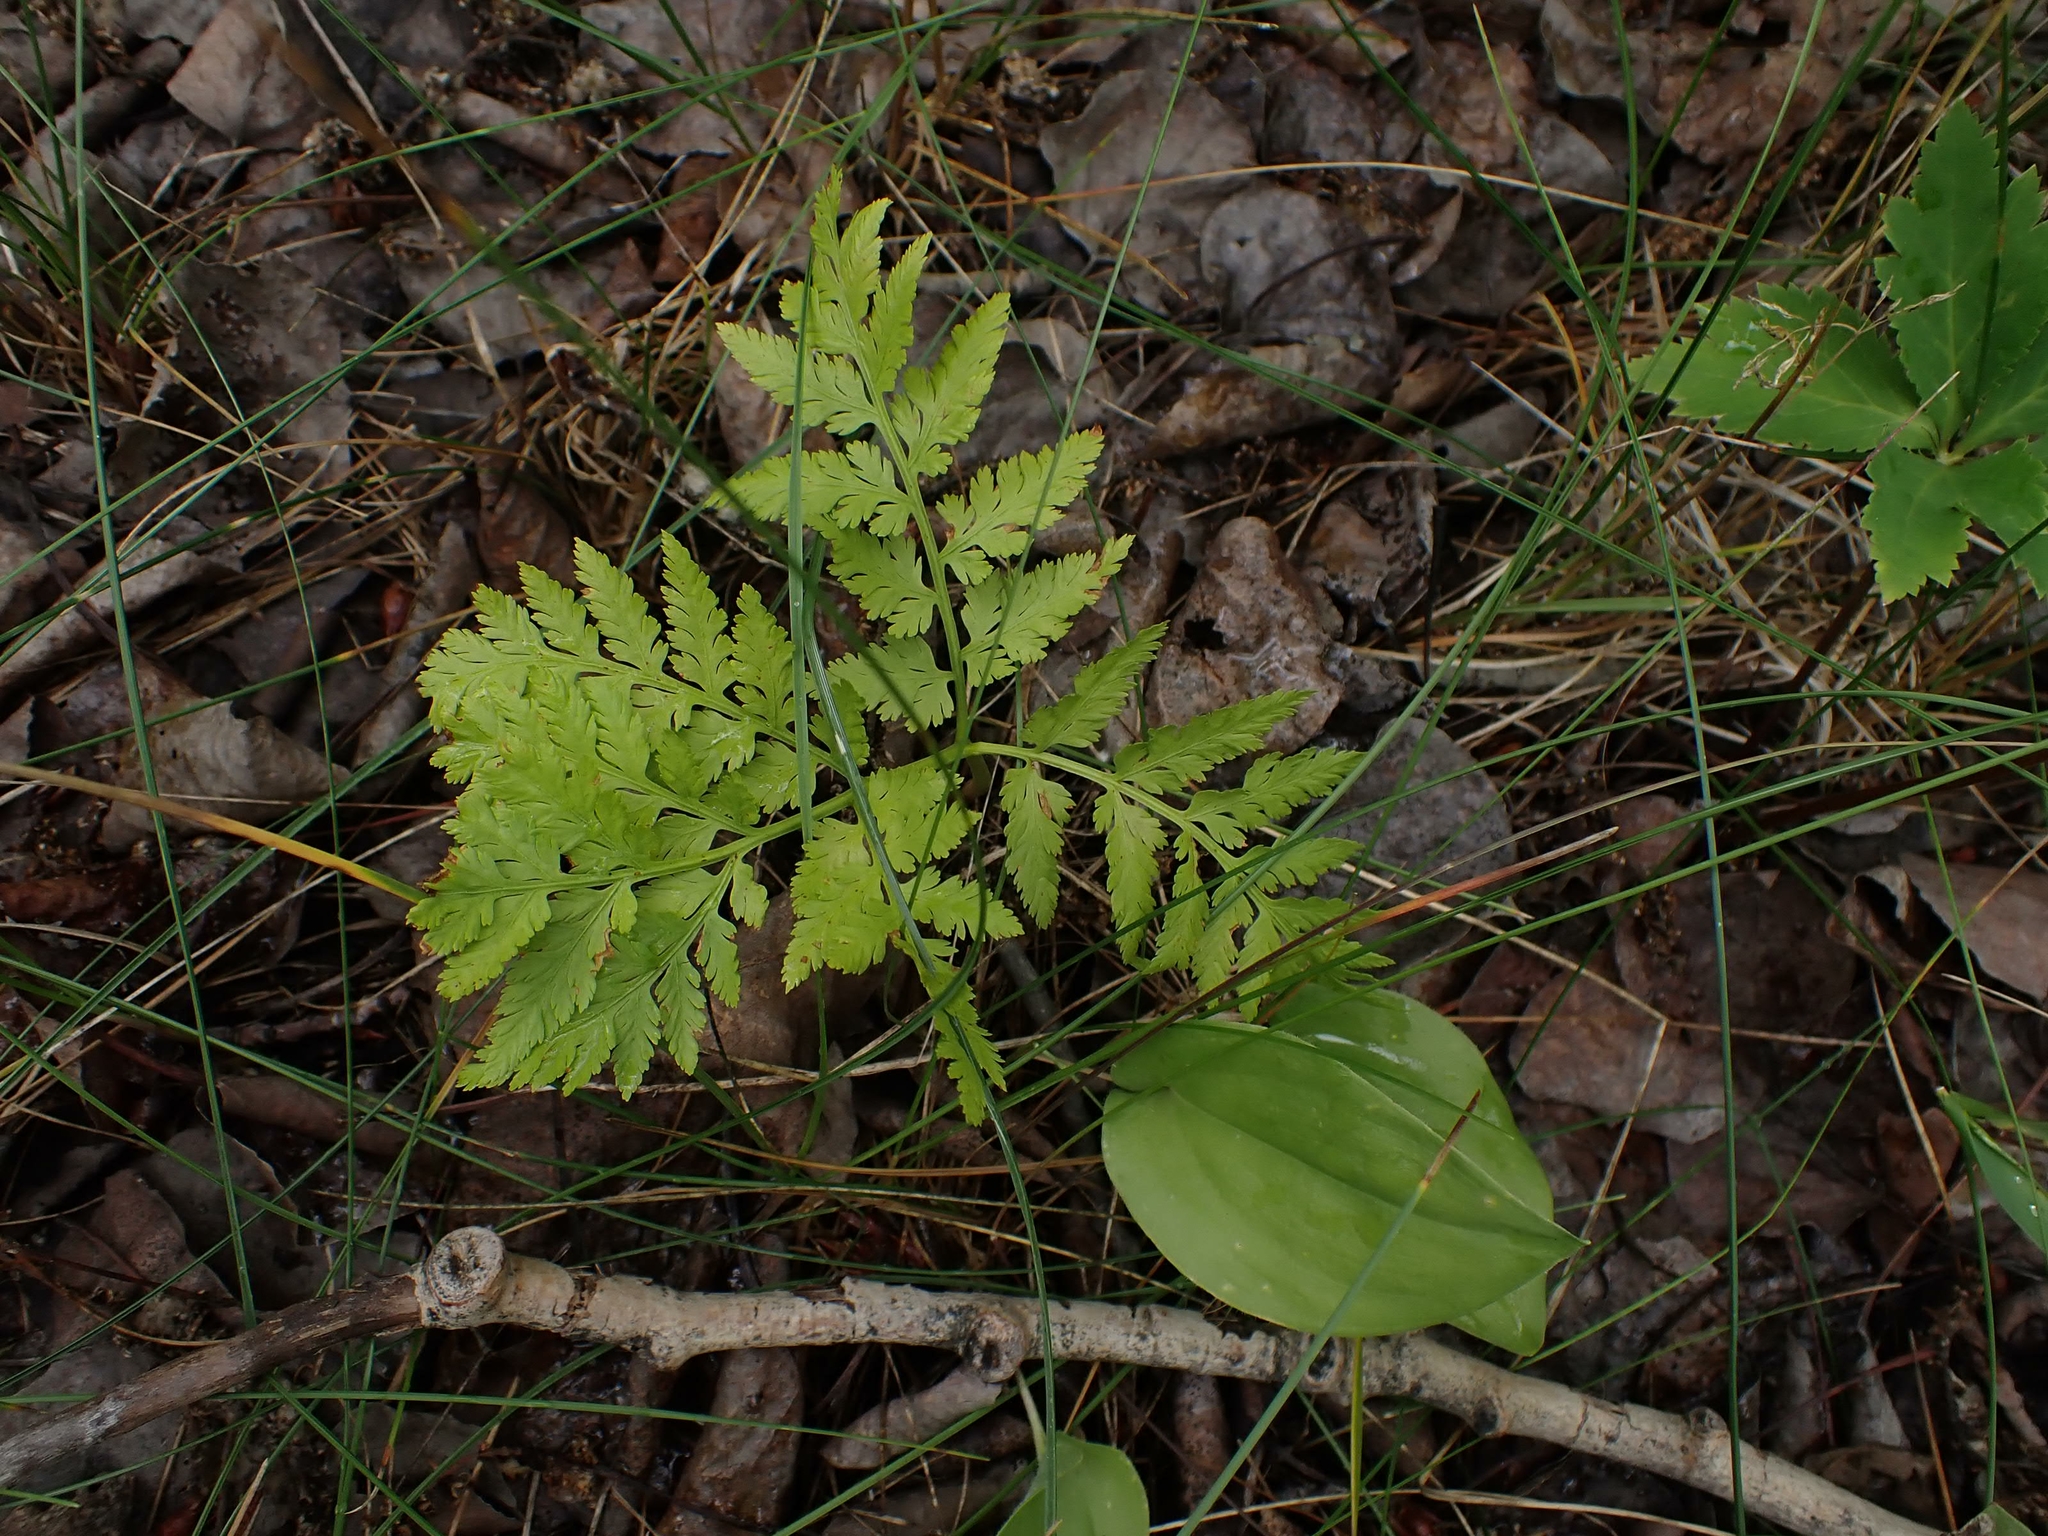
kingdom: Plantae
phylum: Tracheophyta
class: Polypodiopsida
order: Ophioglossales
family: Ophioglossaceae
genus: Botrypus
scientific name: Botrypus virginianus
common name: Common grapefern
